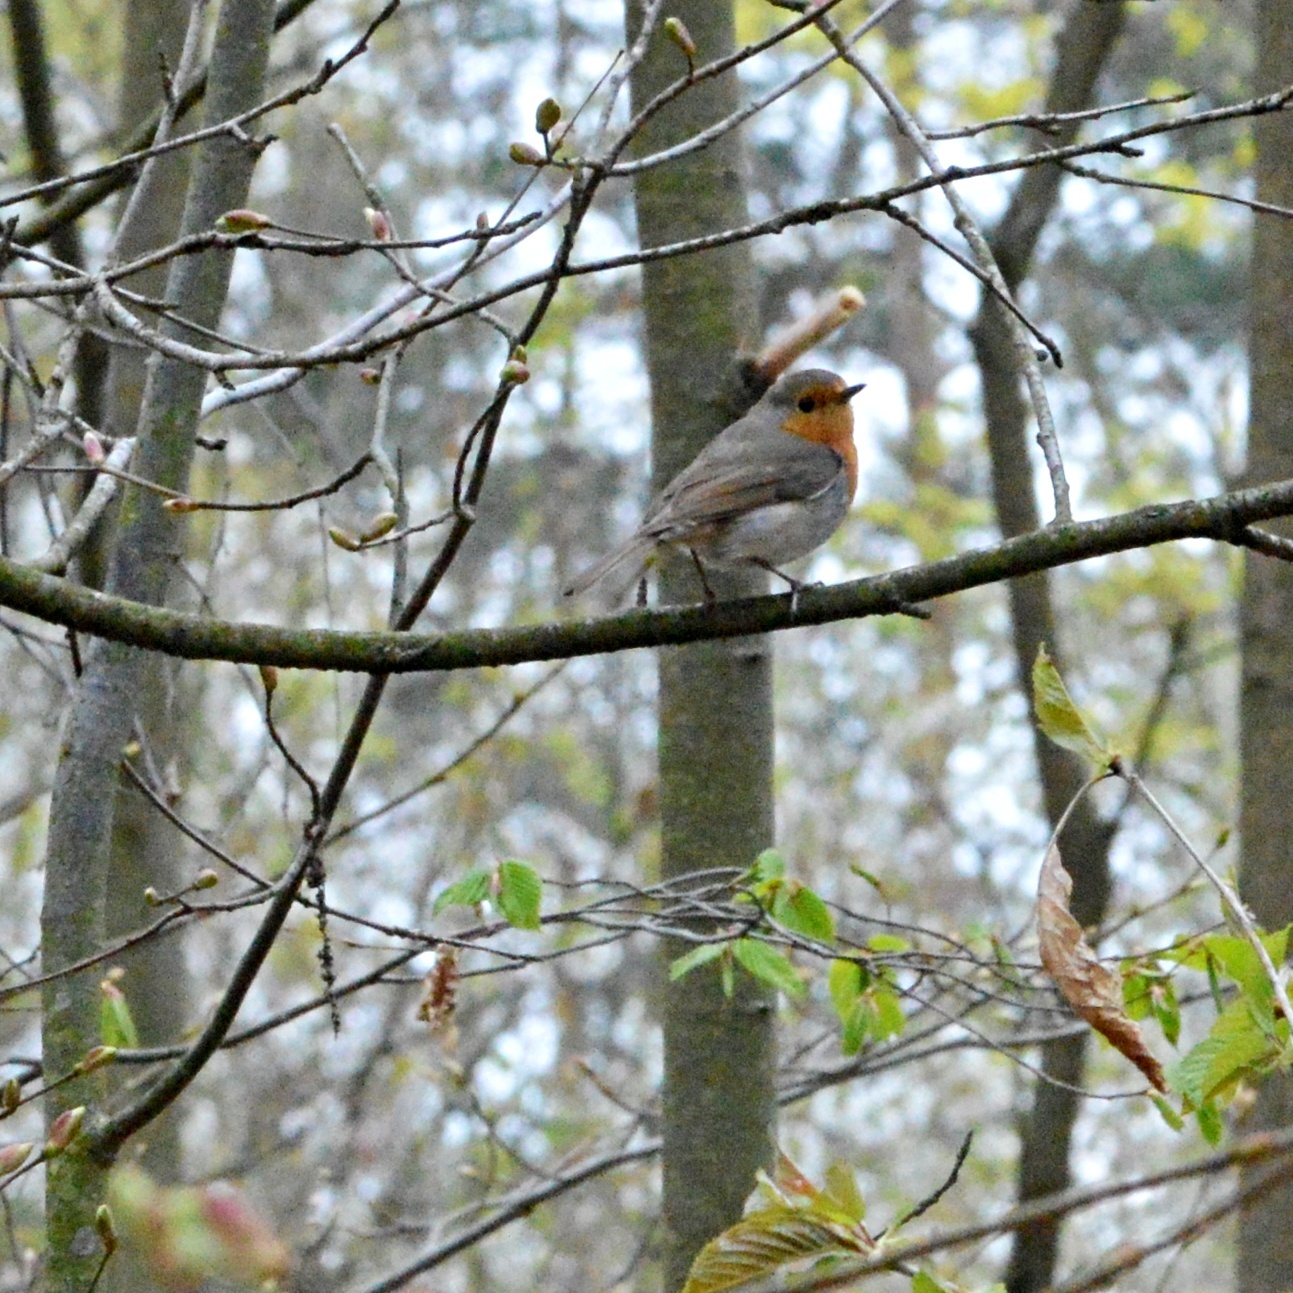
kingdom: Animalia
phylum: Chordata
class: Aves
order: Passeriformes
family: Muscicapidae
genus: Erithacus
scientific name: Erithacus rubecula
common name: European robin
